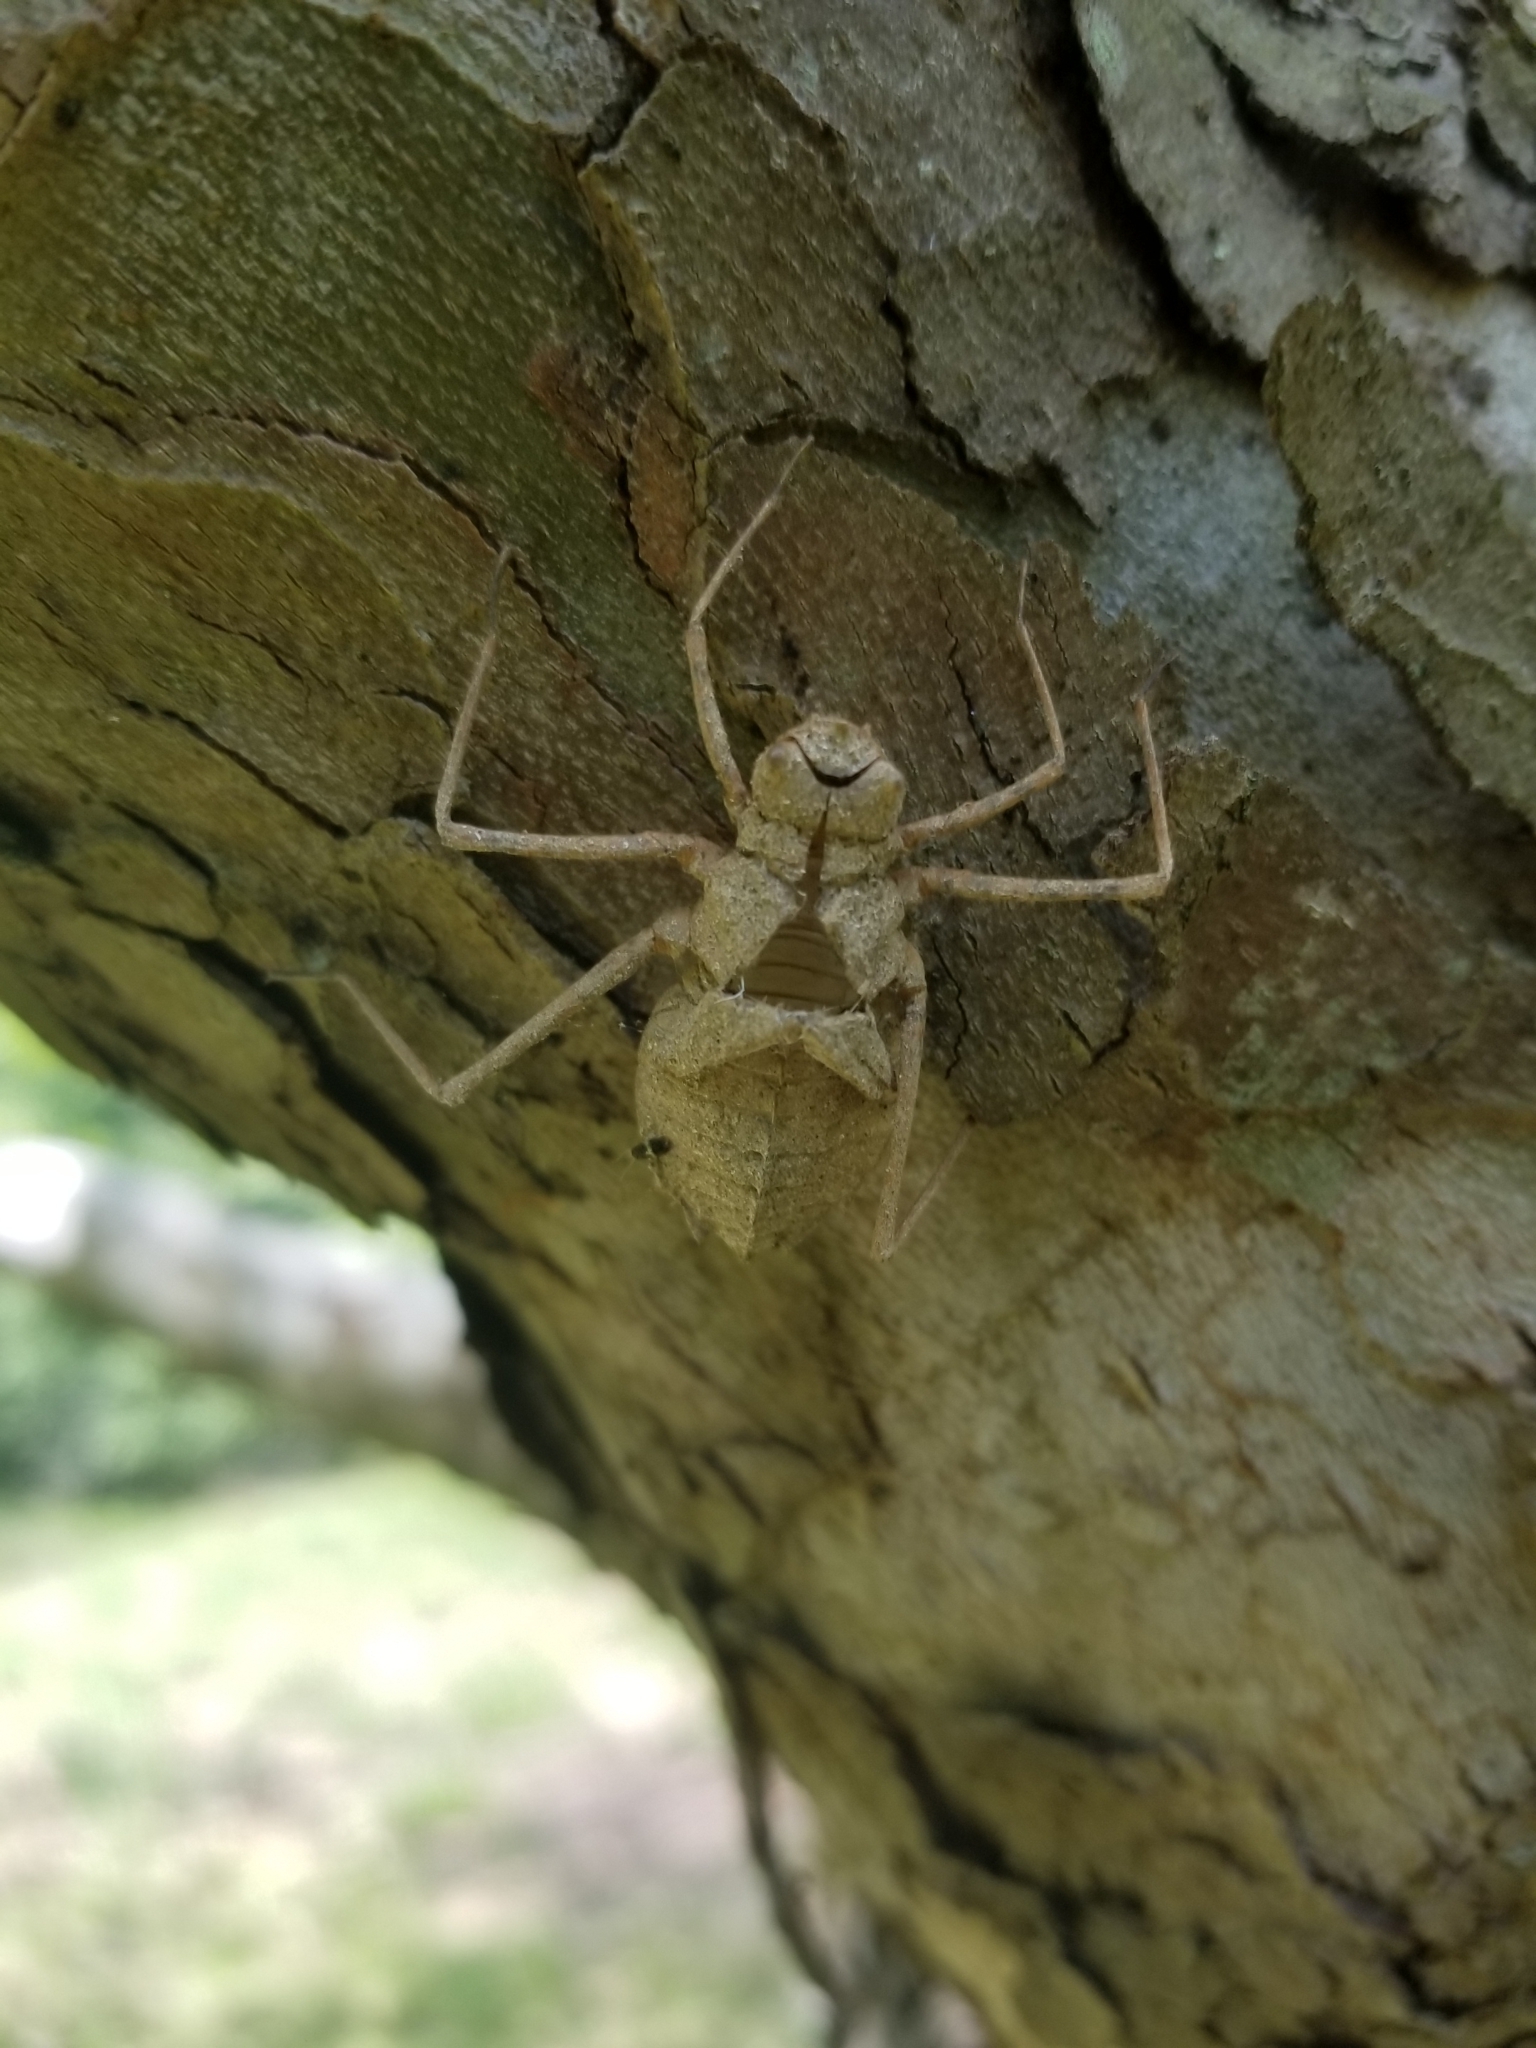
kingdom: Animalia
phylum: Arthropoda
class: Insecta
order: Odonata
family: Macromiidae
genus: Didymops
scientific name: Didymops transversa
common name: Stream cruiser
